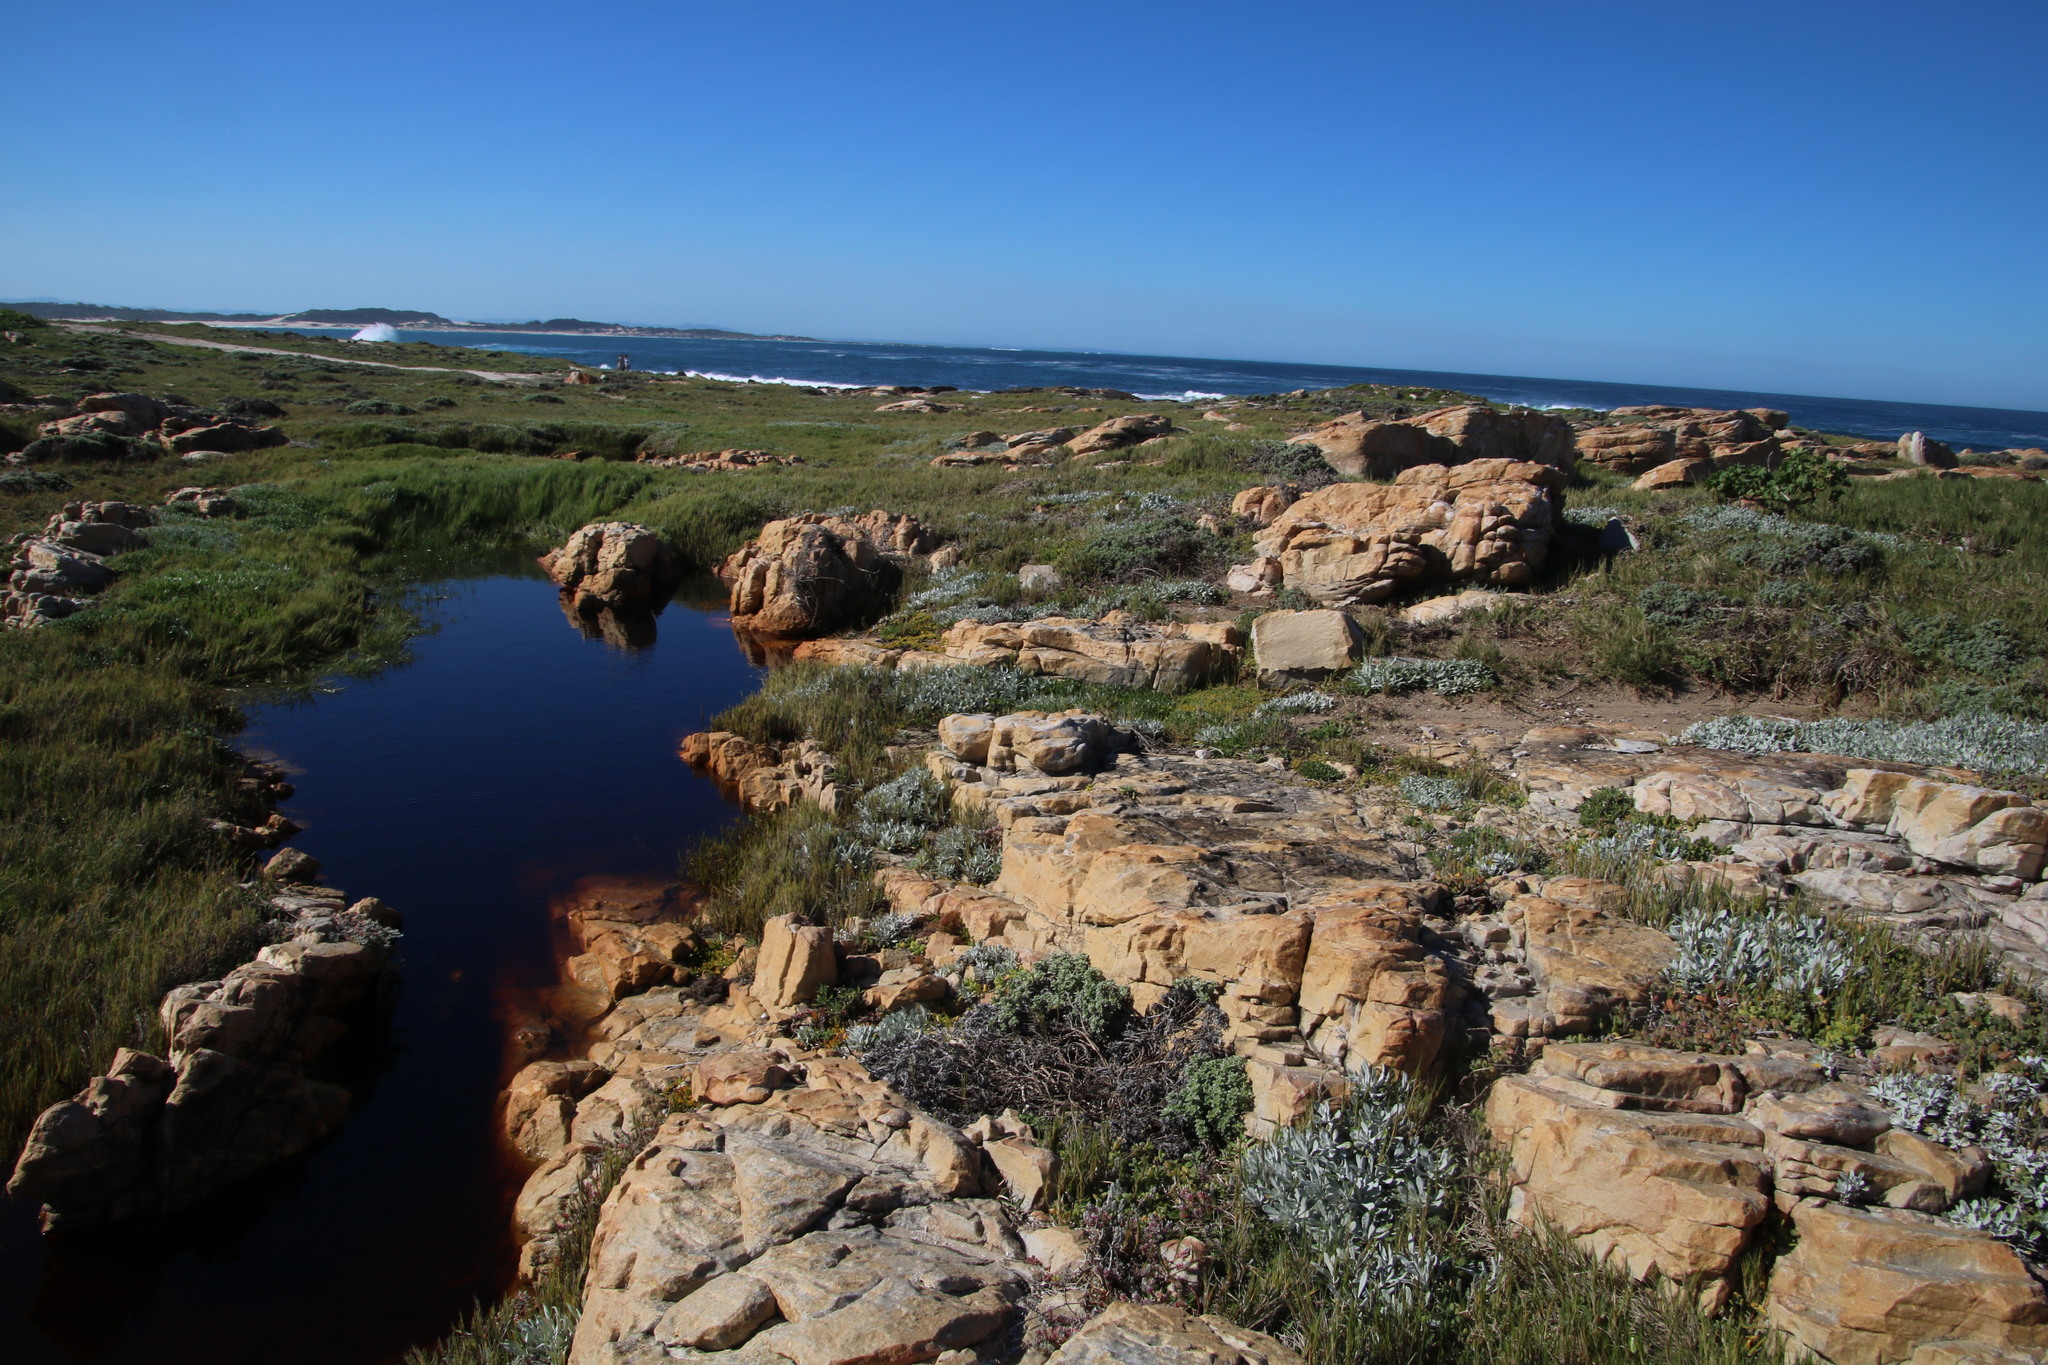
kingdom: Plantae
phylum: Tracheophyta
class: Magnoliopsida
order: Asterales
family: Asteraceae
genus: Gazania
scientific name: Gazania rigens
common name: Treasureflower
